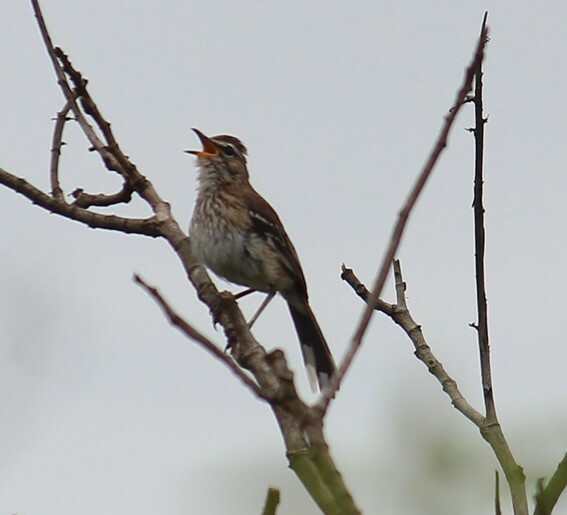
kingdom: Animalia
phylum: Chordata
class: Aves
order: Passeriformes
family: Muscicapidae
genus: Erythropygia
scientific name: Erythropygia leucophrys
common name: White-browed scrub robin
